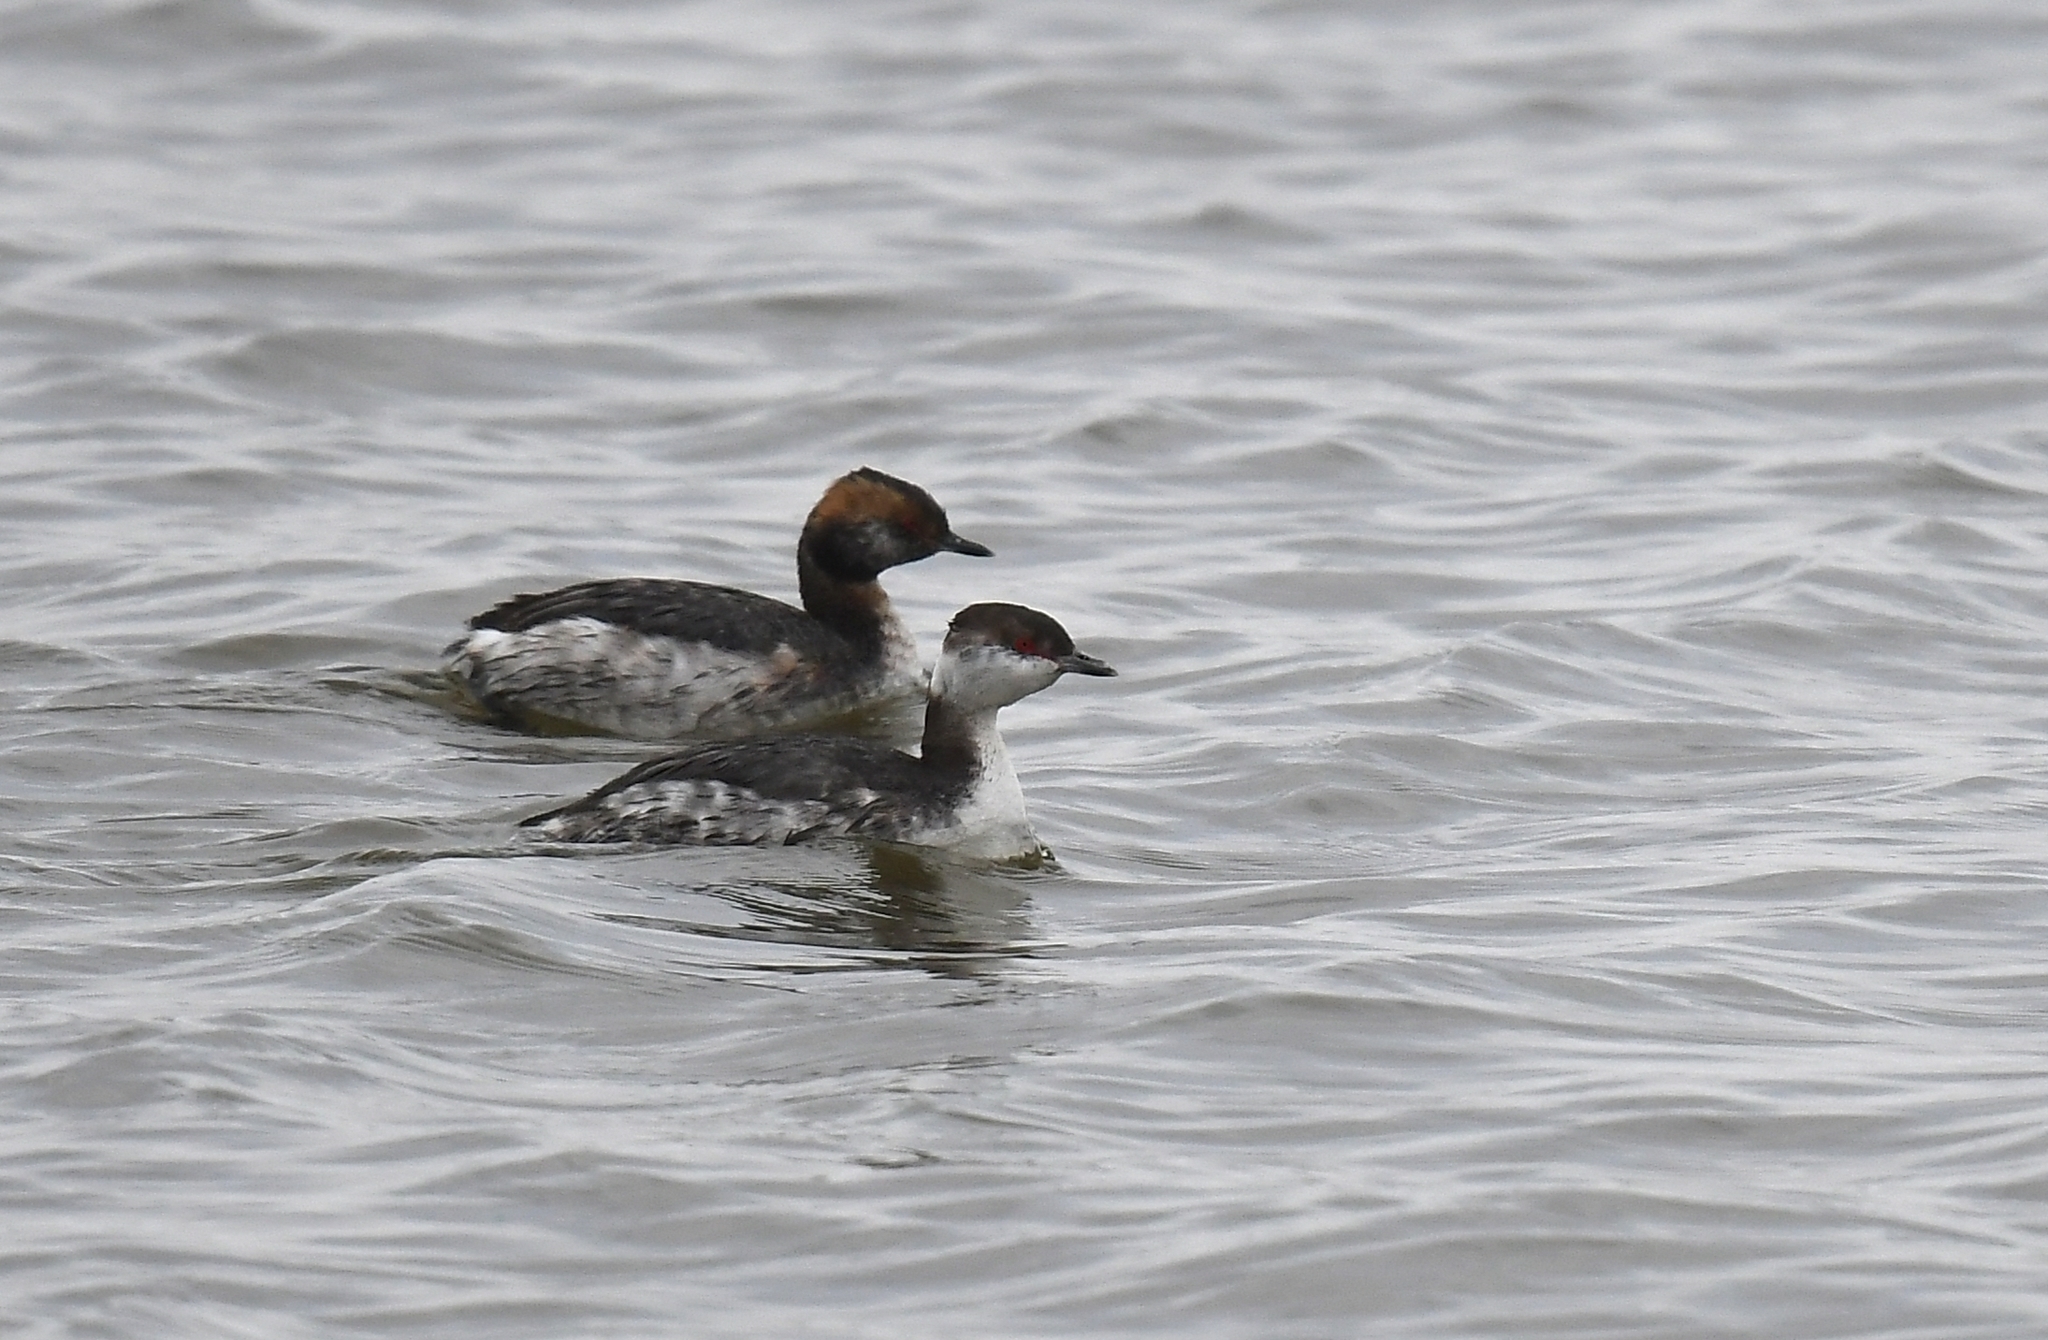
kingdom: Animalia
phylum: Chordata
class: Aves
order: Podicipediformes
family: Podicipedidae
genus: Podiceps
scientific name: Podiceps auritus
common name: Horned grebe
